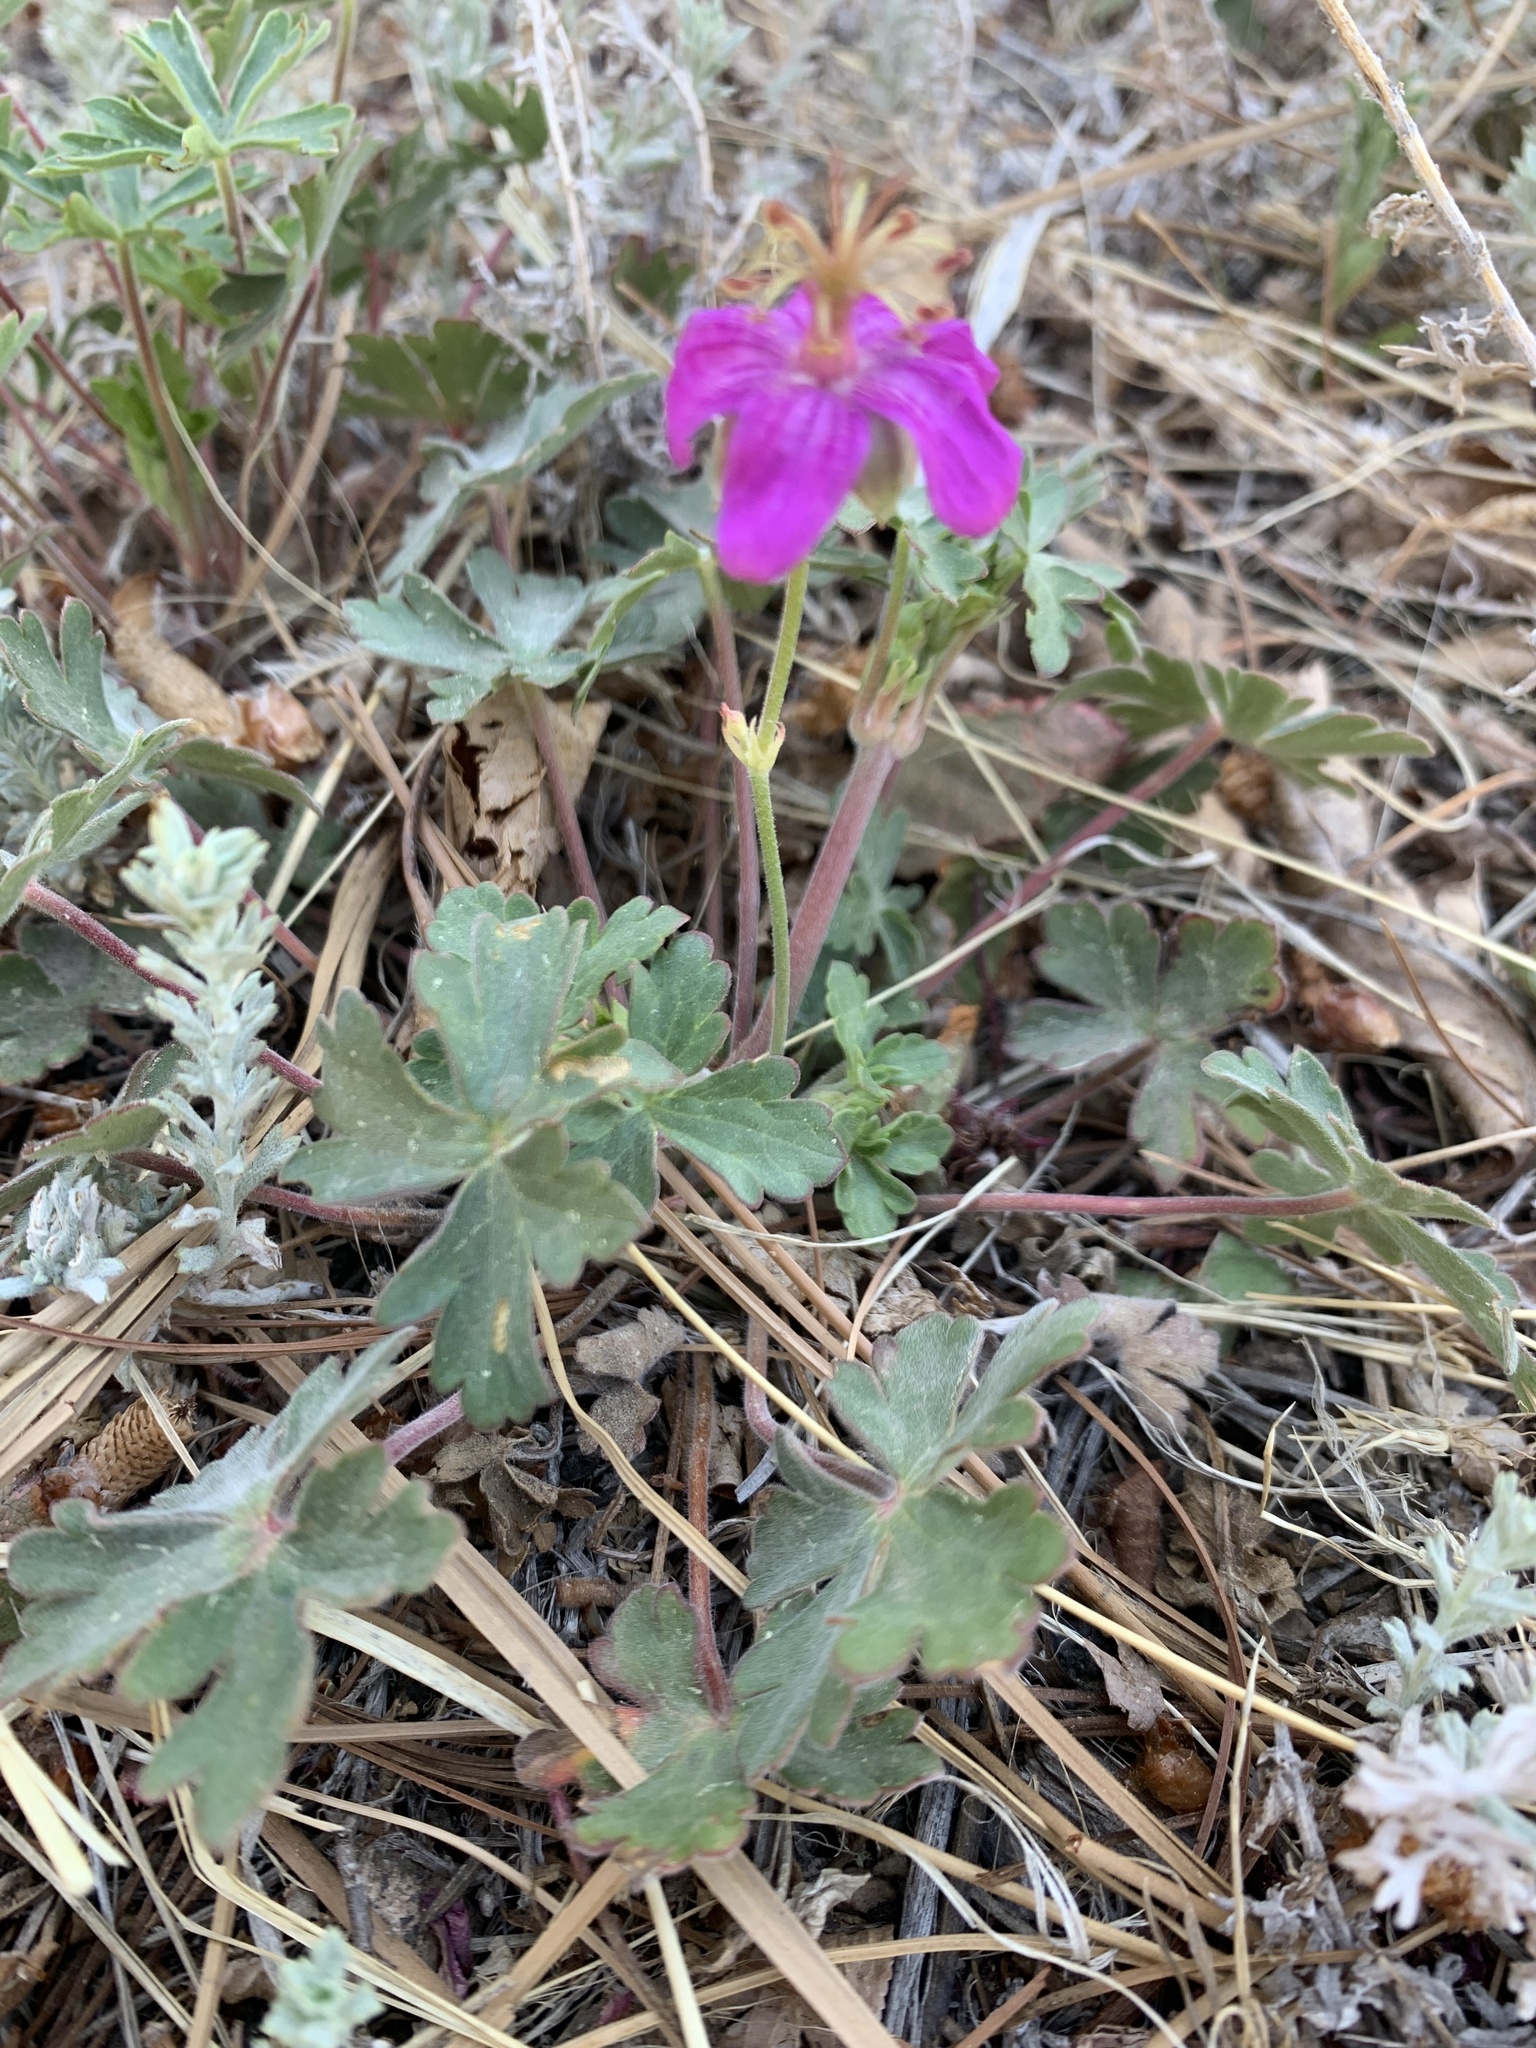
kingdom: Plantae
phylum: Tracheophyta
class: Magnoliopsida
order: Geraniales
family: Geraniaceae
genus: Geranium
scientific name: Geranium caespitosum
